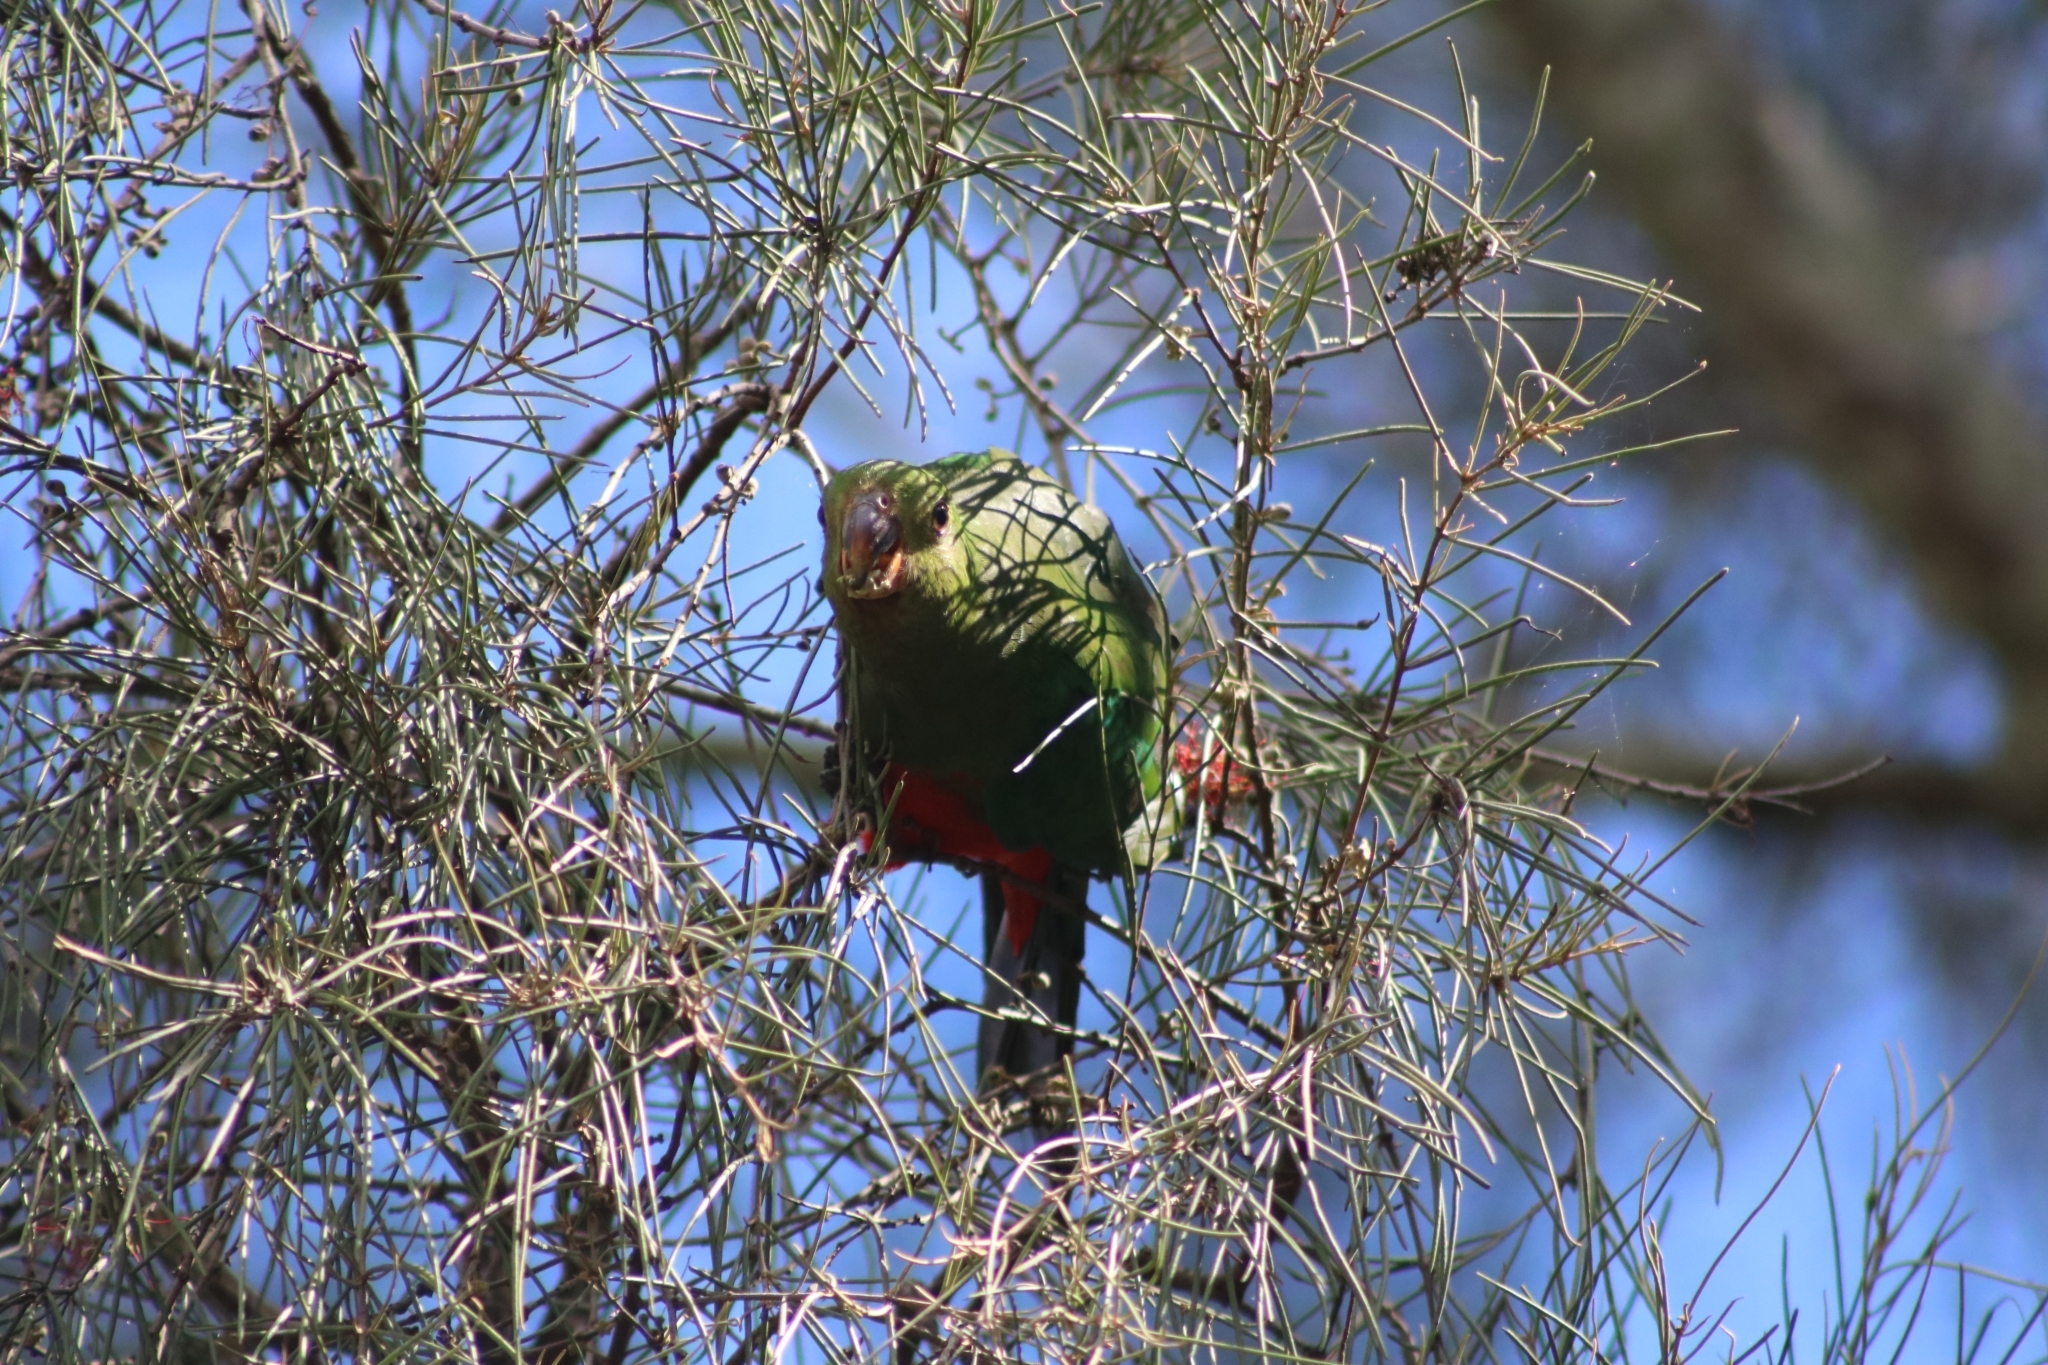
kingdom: Animalia
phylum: Chordata
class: Aves
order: Psittaciformes
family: Psittacidae
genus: Alisterus
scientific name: Alisterus scapularis
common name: Australian king parrot
